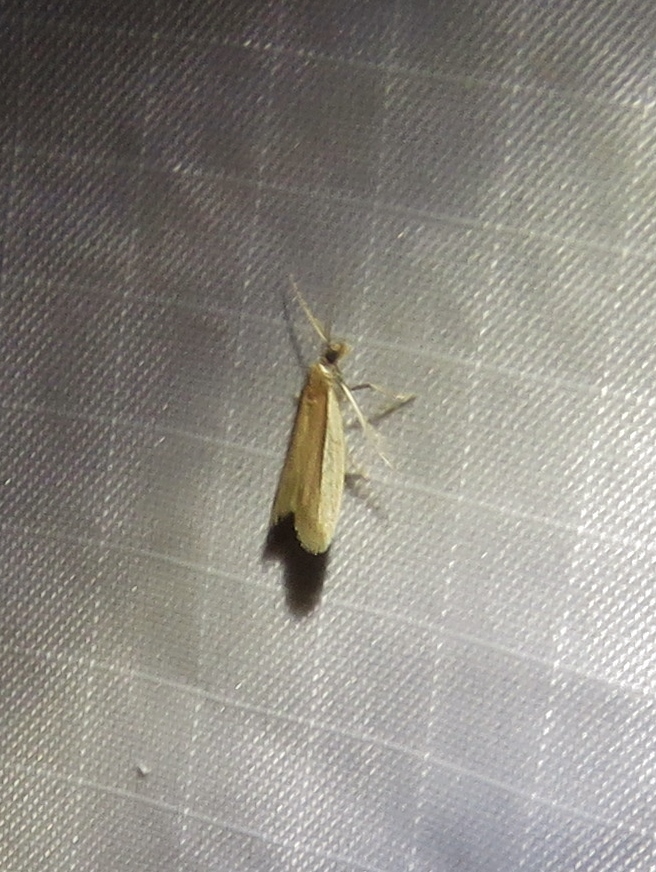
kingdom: Animalia
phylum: Arthropoda
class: Insecta
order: Lepidoptera
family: Pyralidae
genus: Tampa
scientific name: Tampa dimediatella
